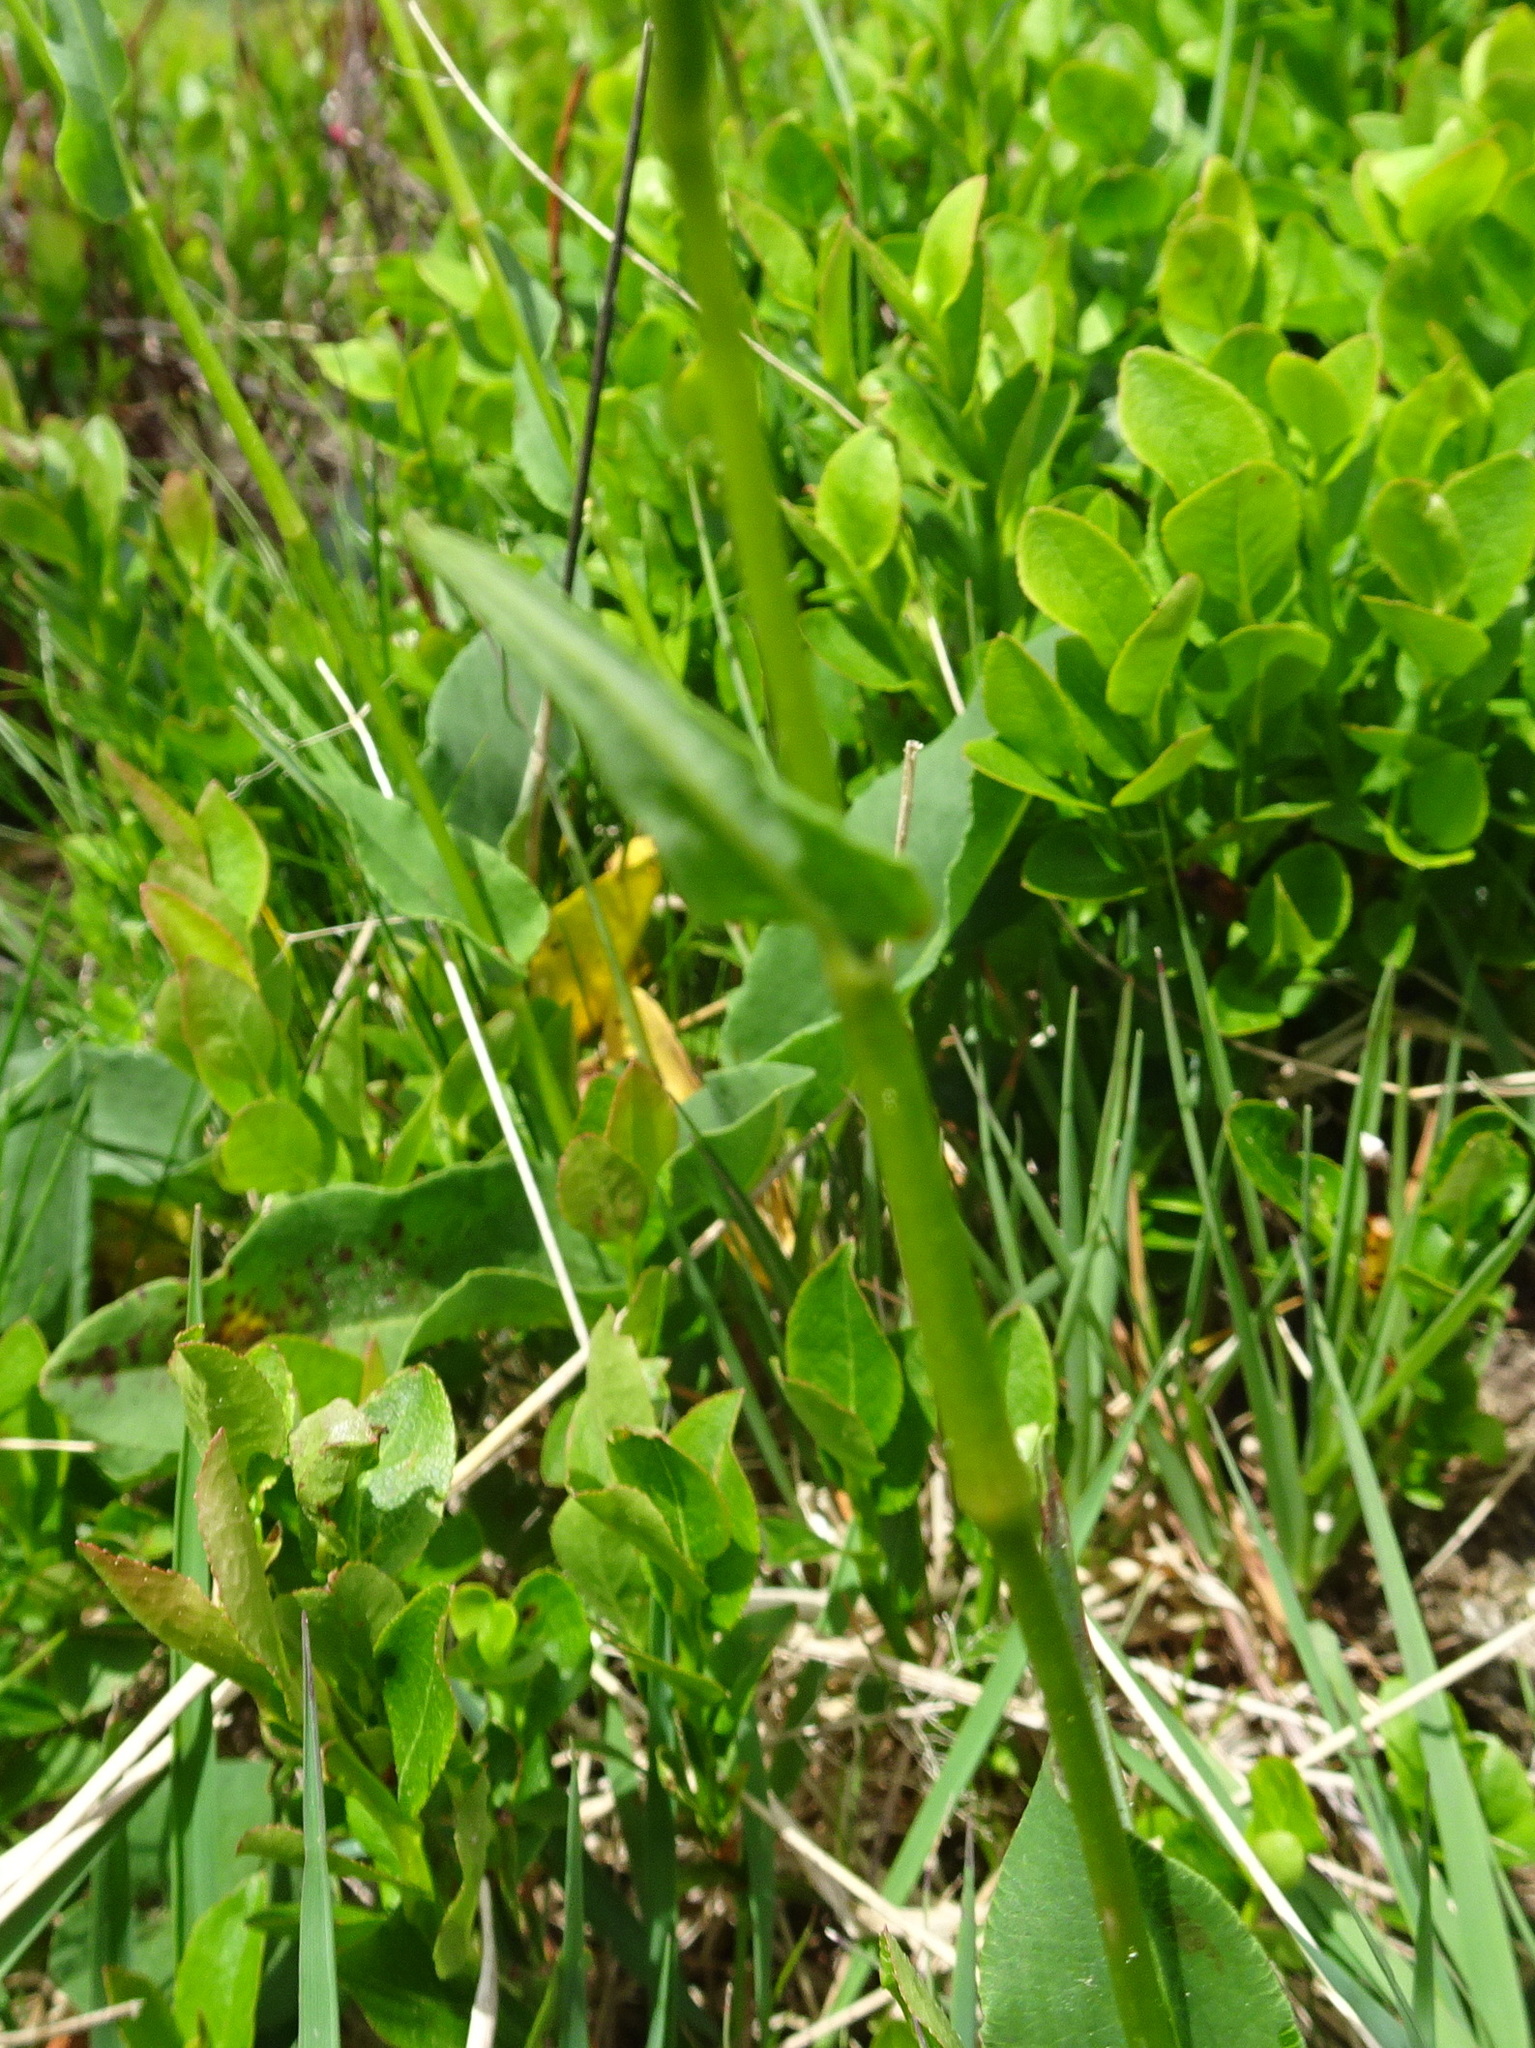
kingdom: Plantae
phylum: Tracheophyta
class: Magnoliopsida
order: Caryophyllales
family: Polygonaceae
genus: Bistorta
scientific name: Bistorta officinalis
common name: Common bistort
